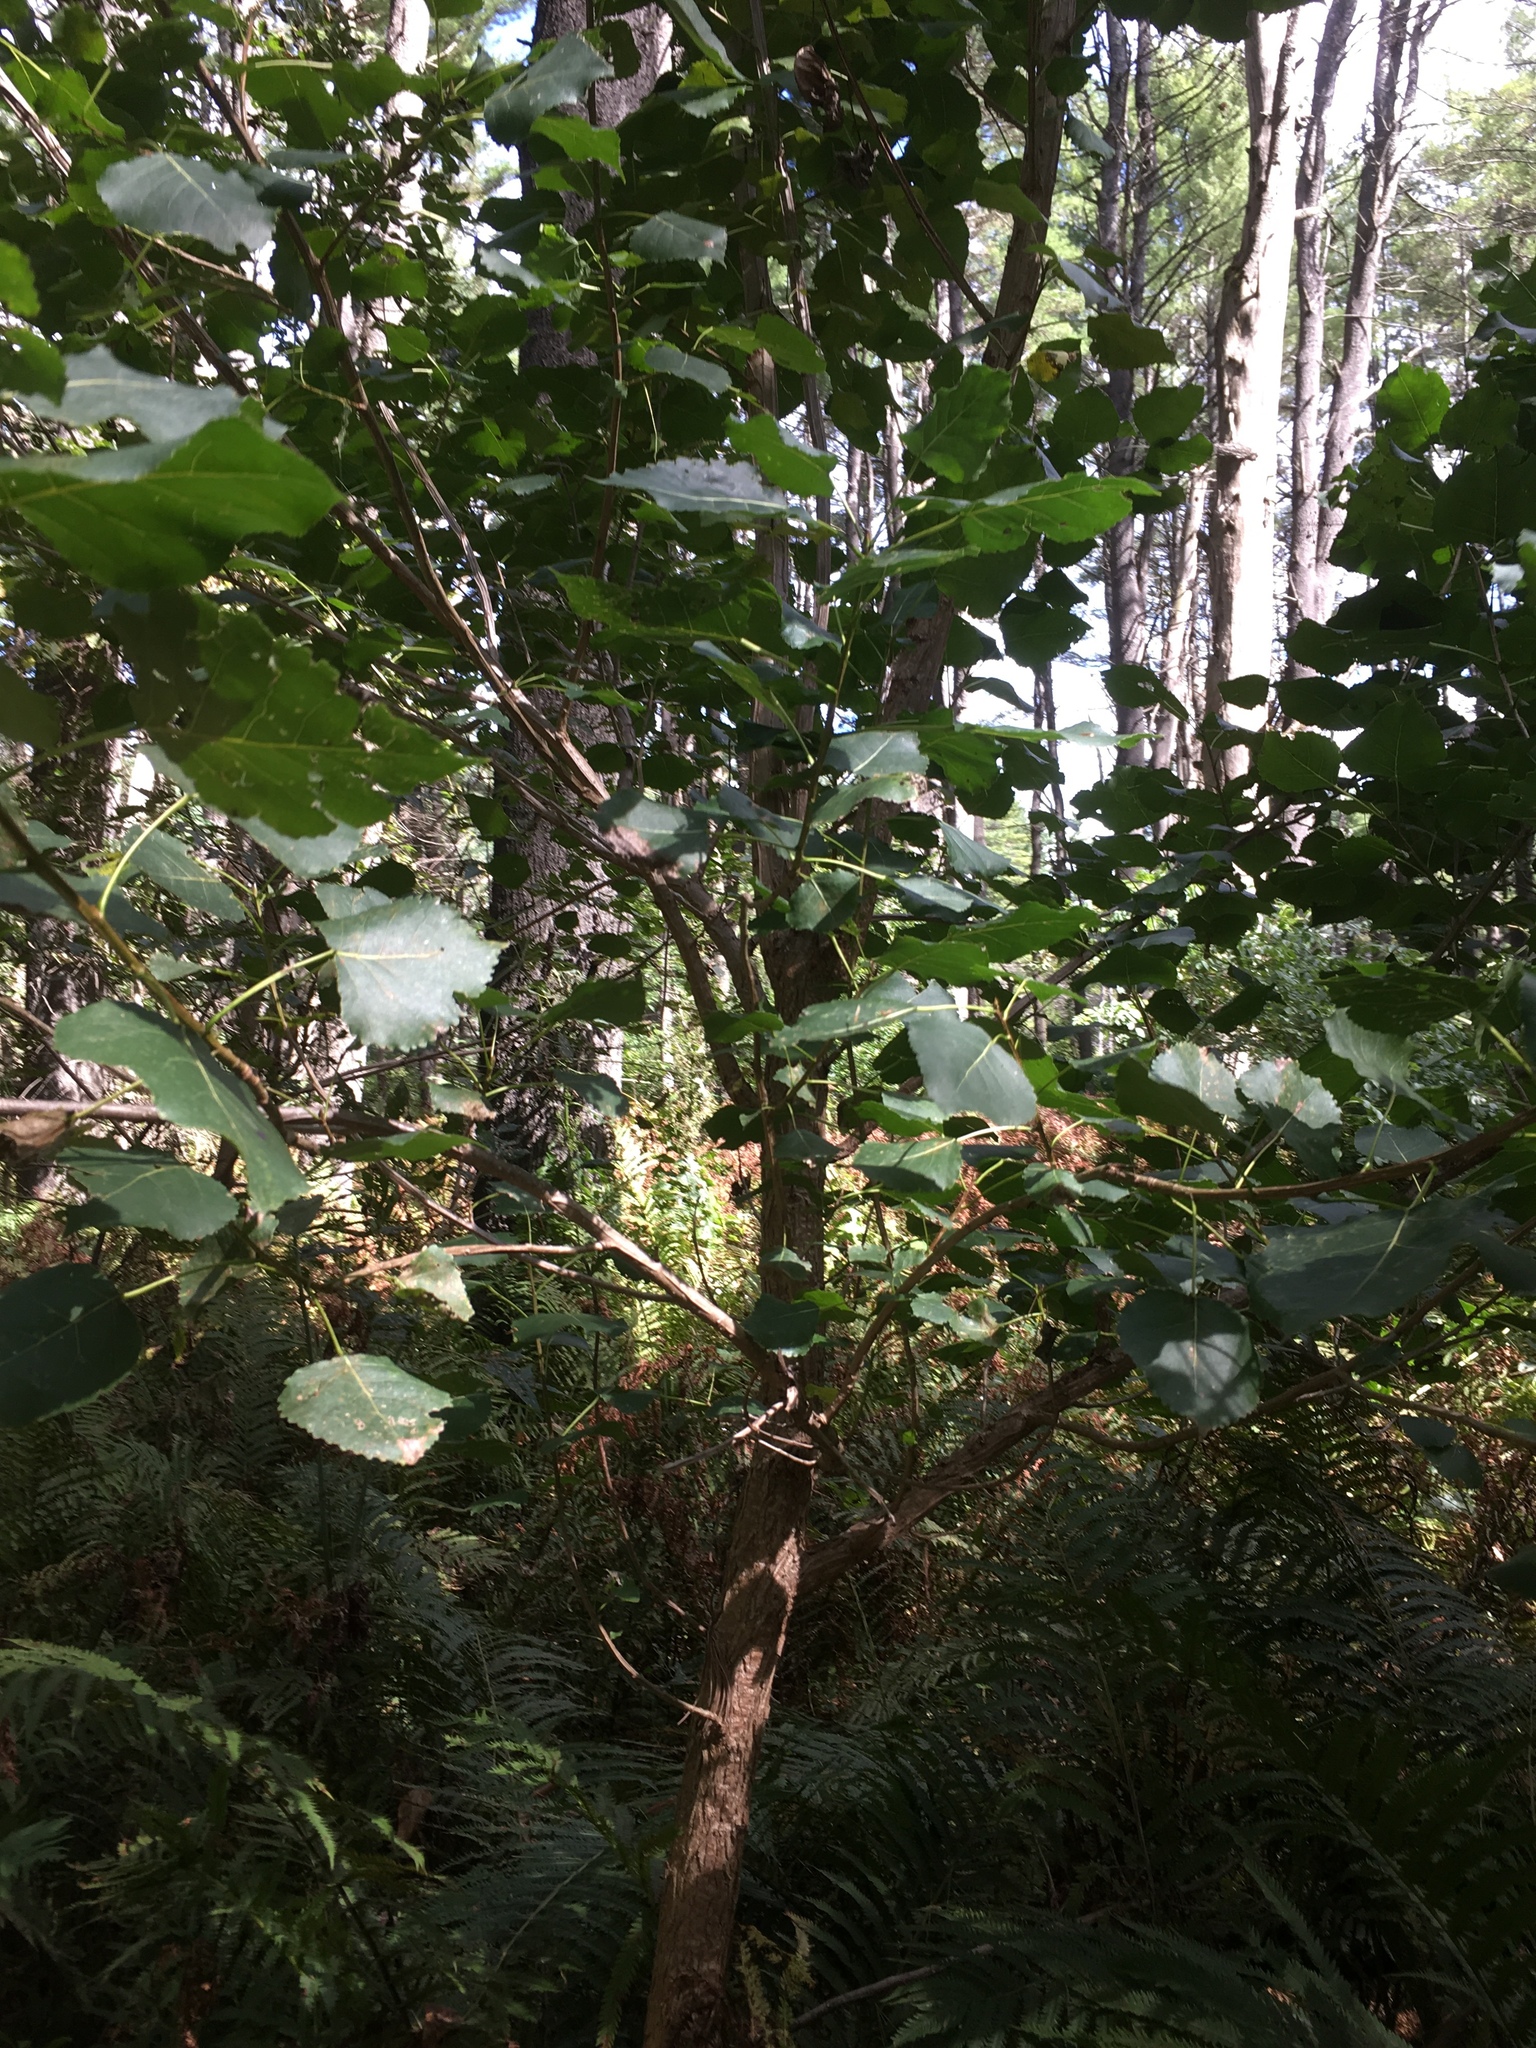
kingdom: Plantae
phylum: Tracheophyta
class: Magnoliopsida
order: Malpighiales
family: Salicaceae
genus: Populus
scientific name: Populus deltoides
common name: Eastern cottonwood
